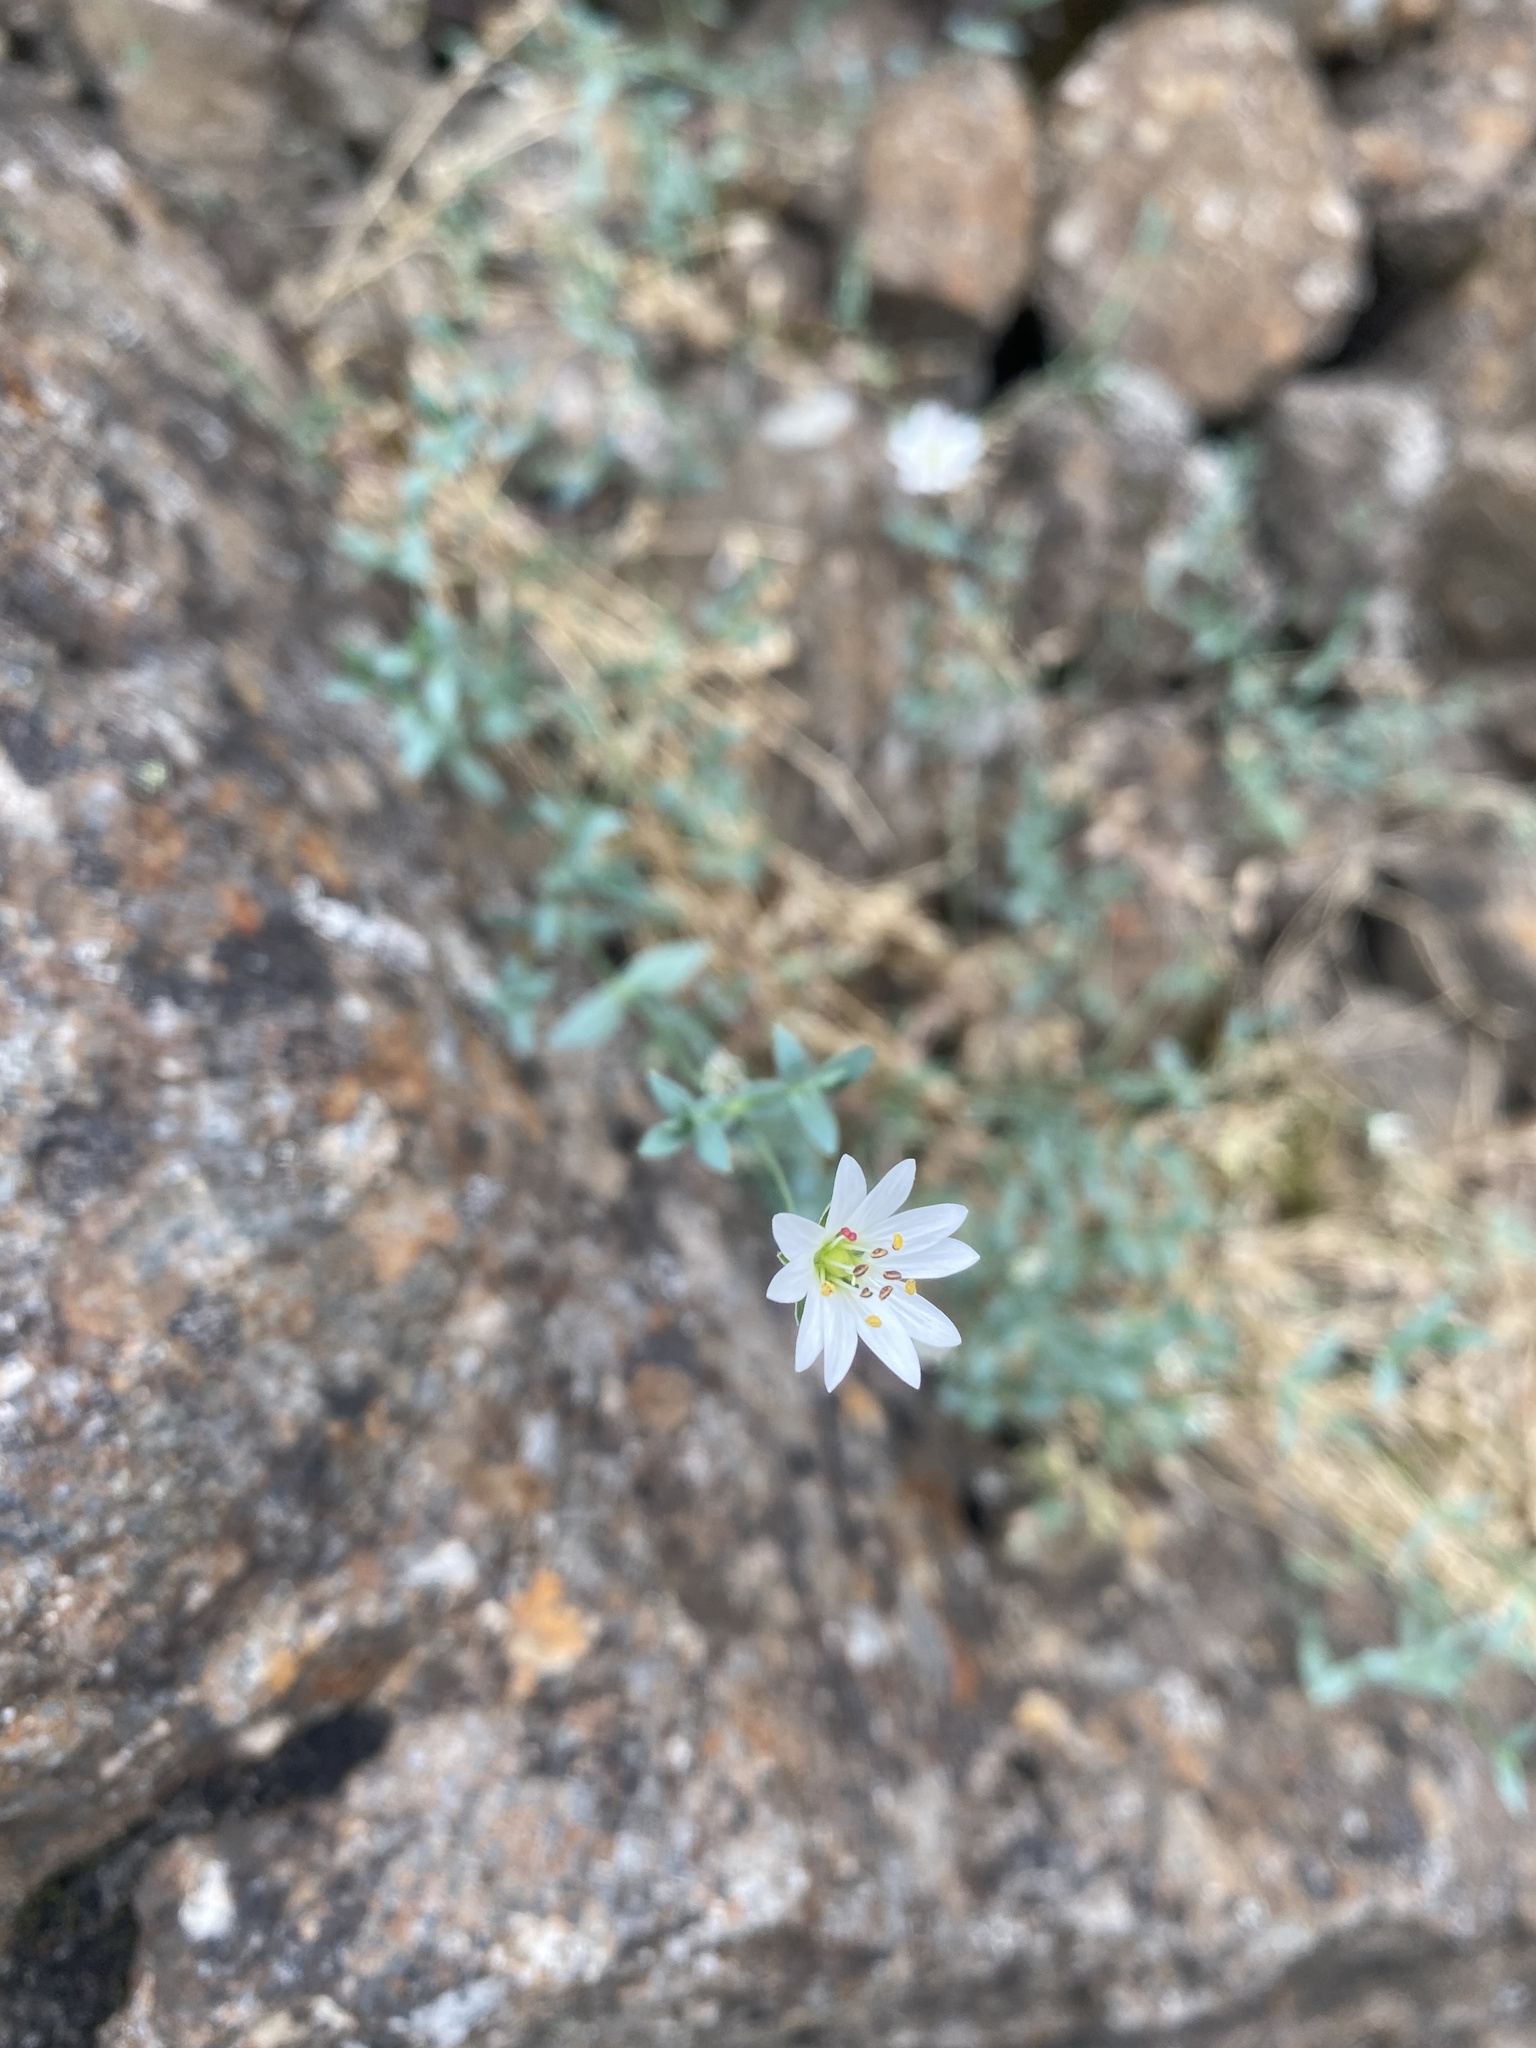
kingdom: Plantae
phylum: Tracheophyta
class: Magnoliopsida
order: Caryophyllales
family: Caryophyllaceae
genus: Stellaria
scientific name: Stellaria fischeriana
